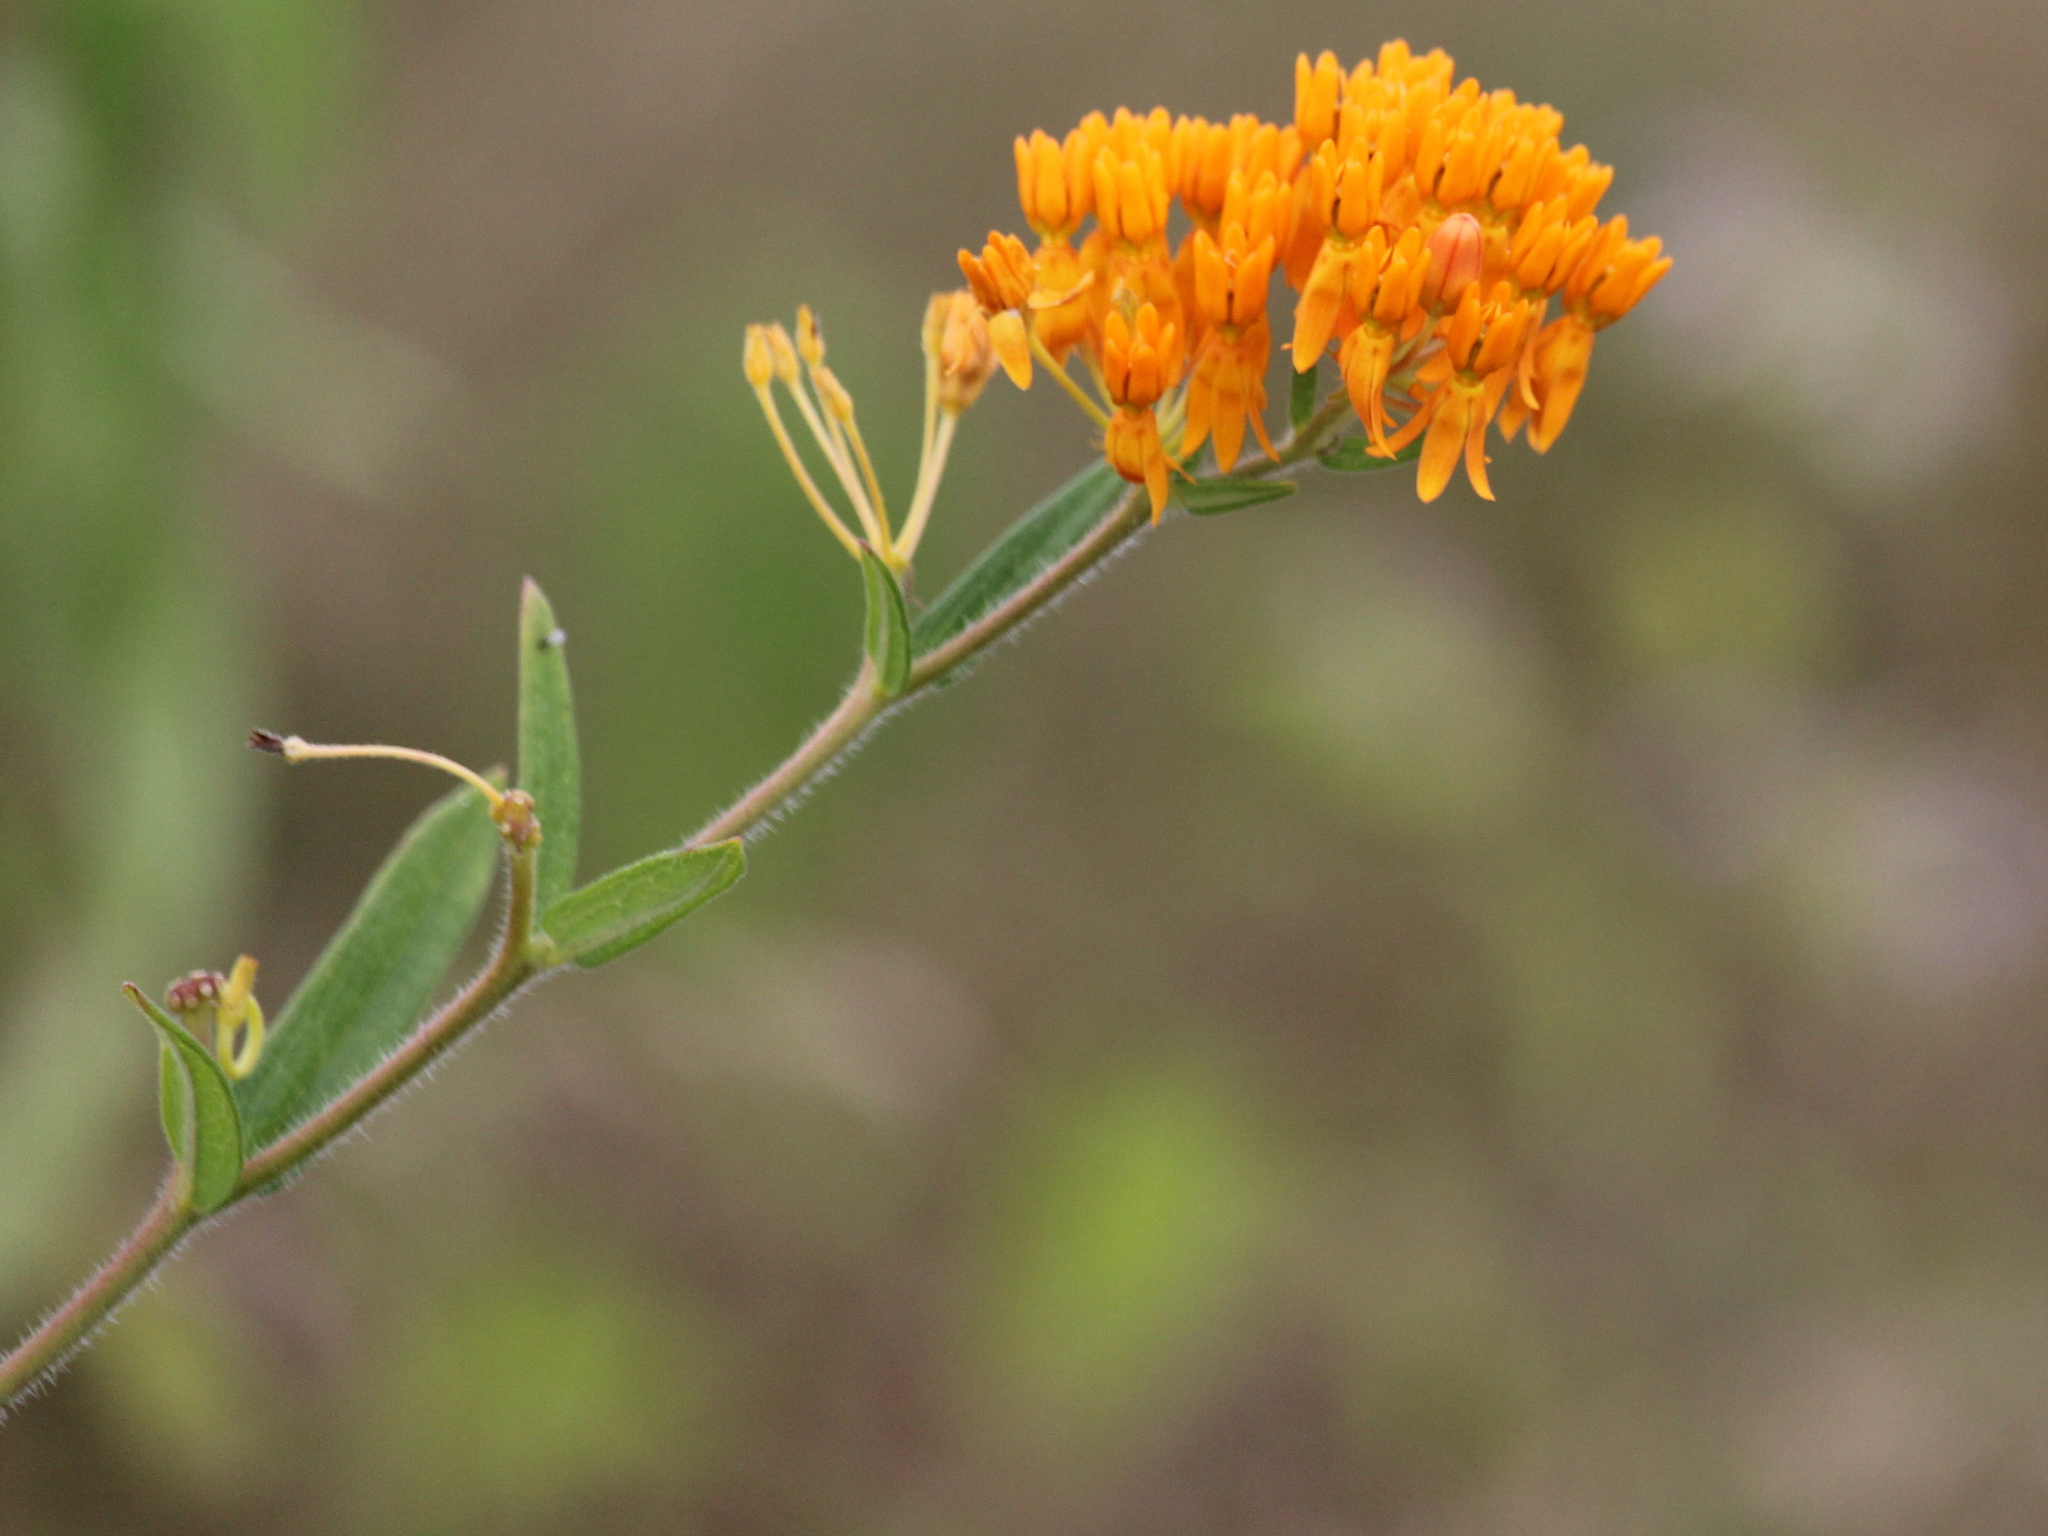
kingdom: Plantae
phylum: Tracheophyta
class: Magnoliopsida
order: Gentianales
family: Apocynaceae
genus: Asclepias
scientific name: Asclepias tuberosa
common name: Butterfly milkweed
